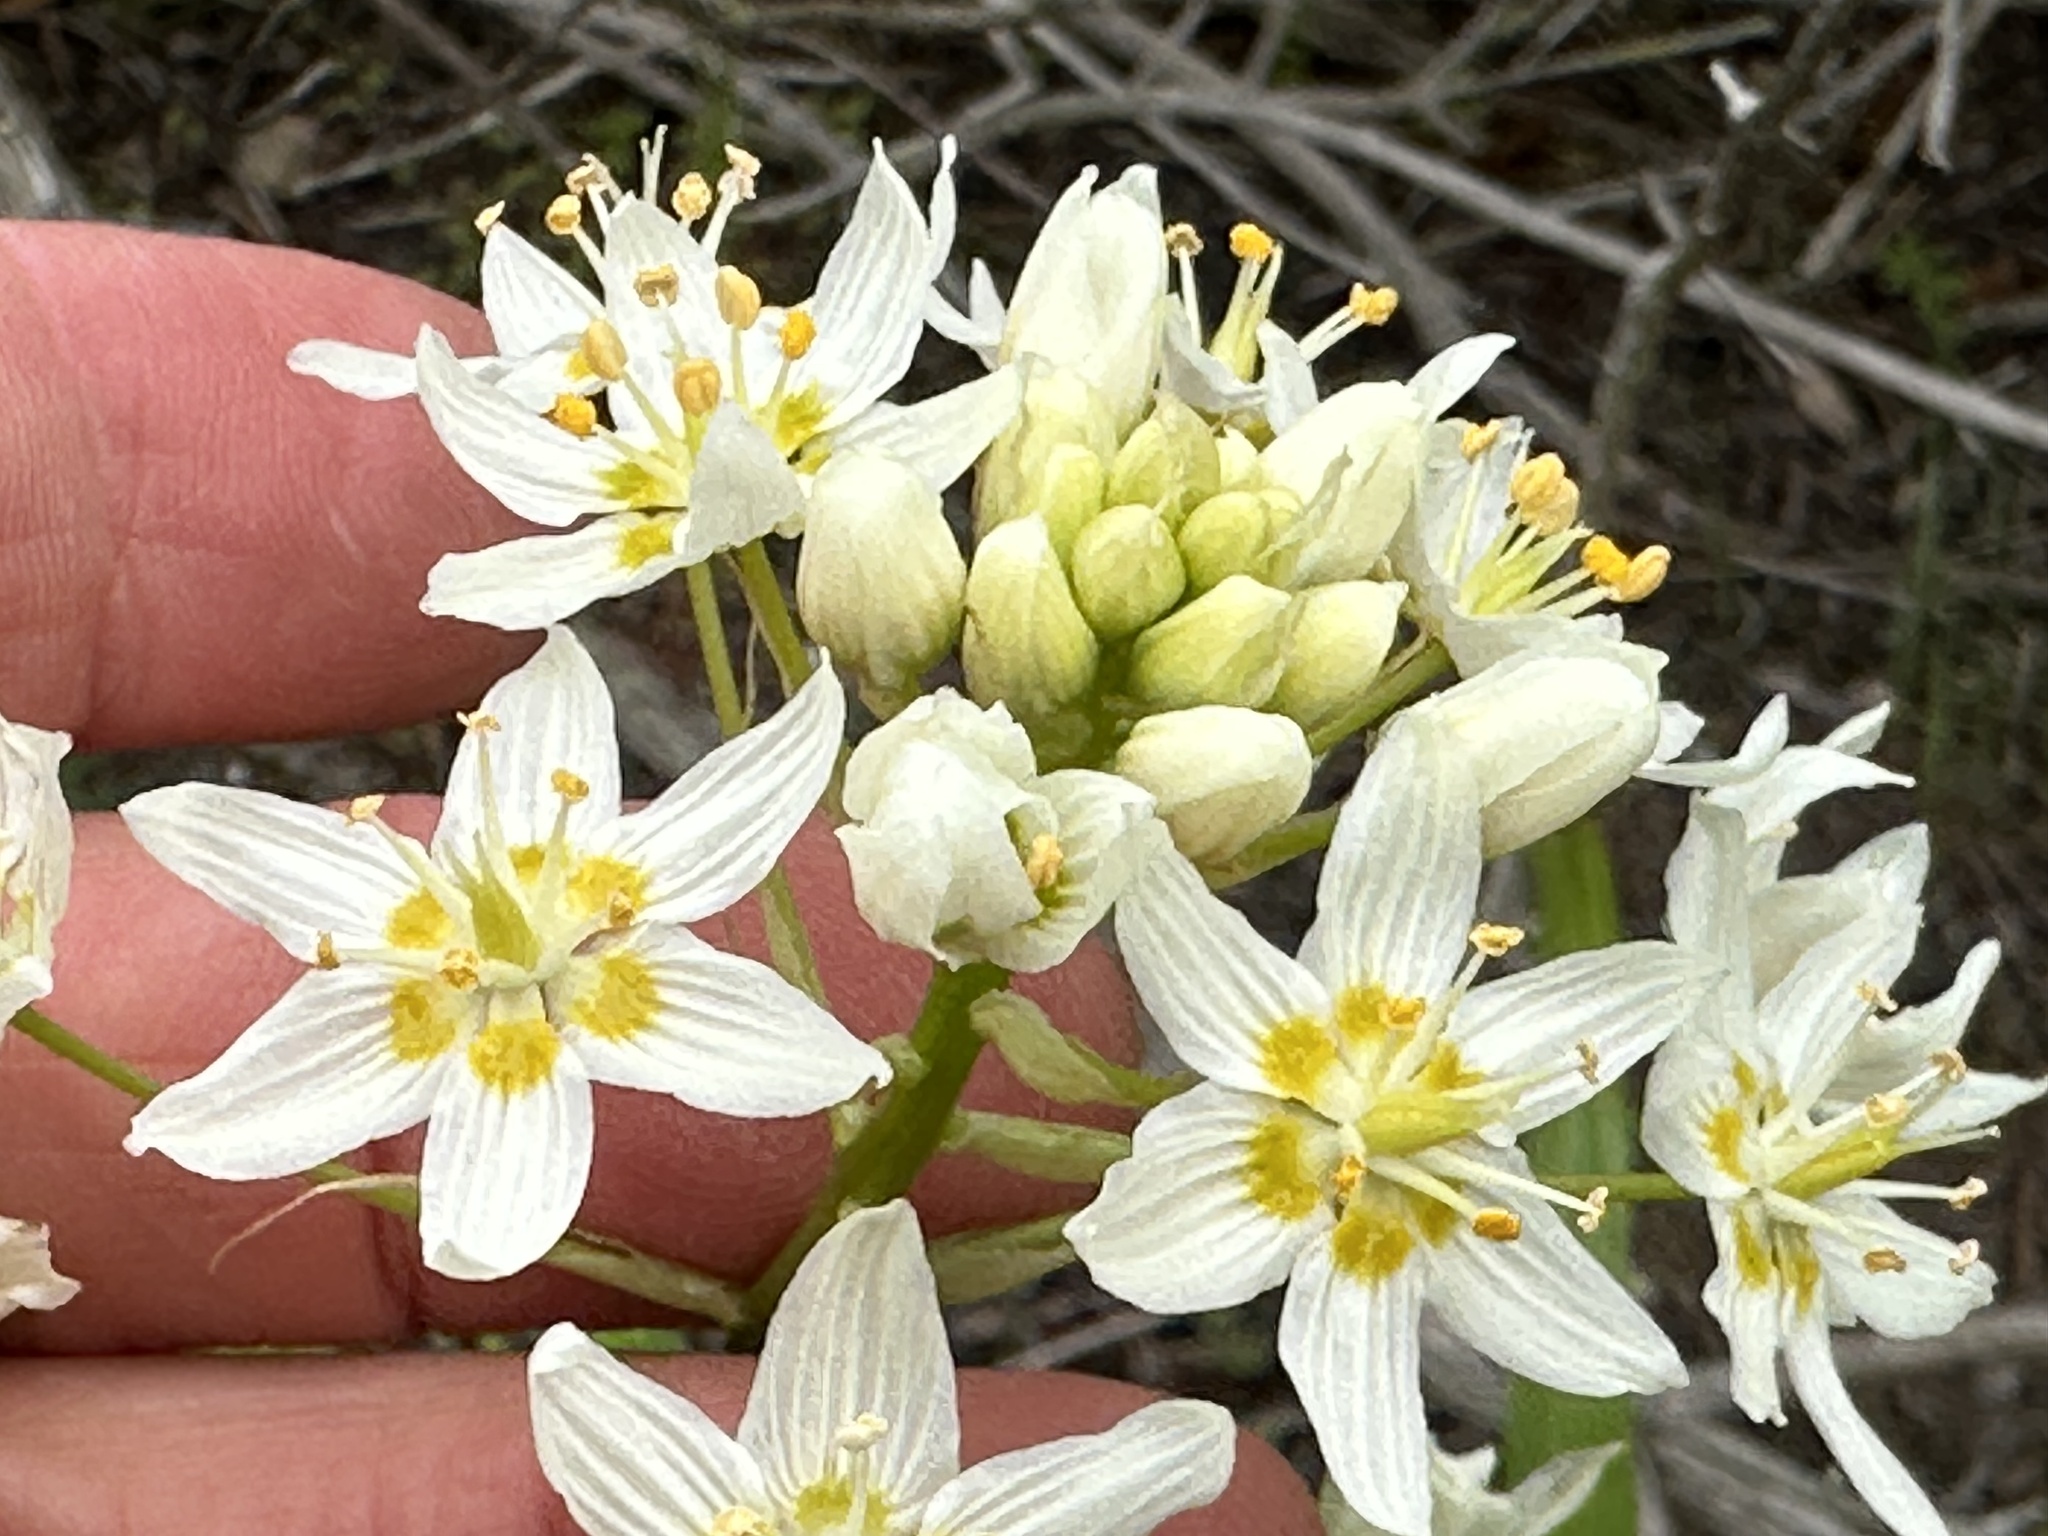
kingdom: Plantae
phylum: Tracheophyta
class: Liliopsida
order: Liliales
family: Melanthiaceae
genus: Toxicoscordion
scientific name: Toxicoscordion fremontii
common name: Fremont's death camas
